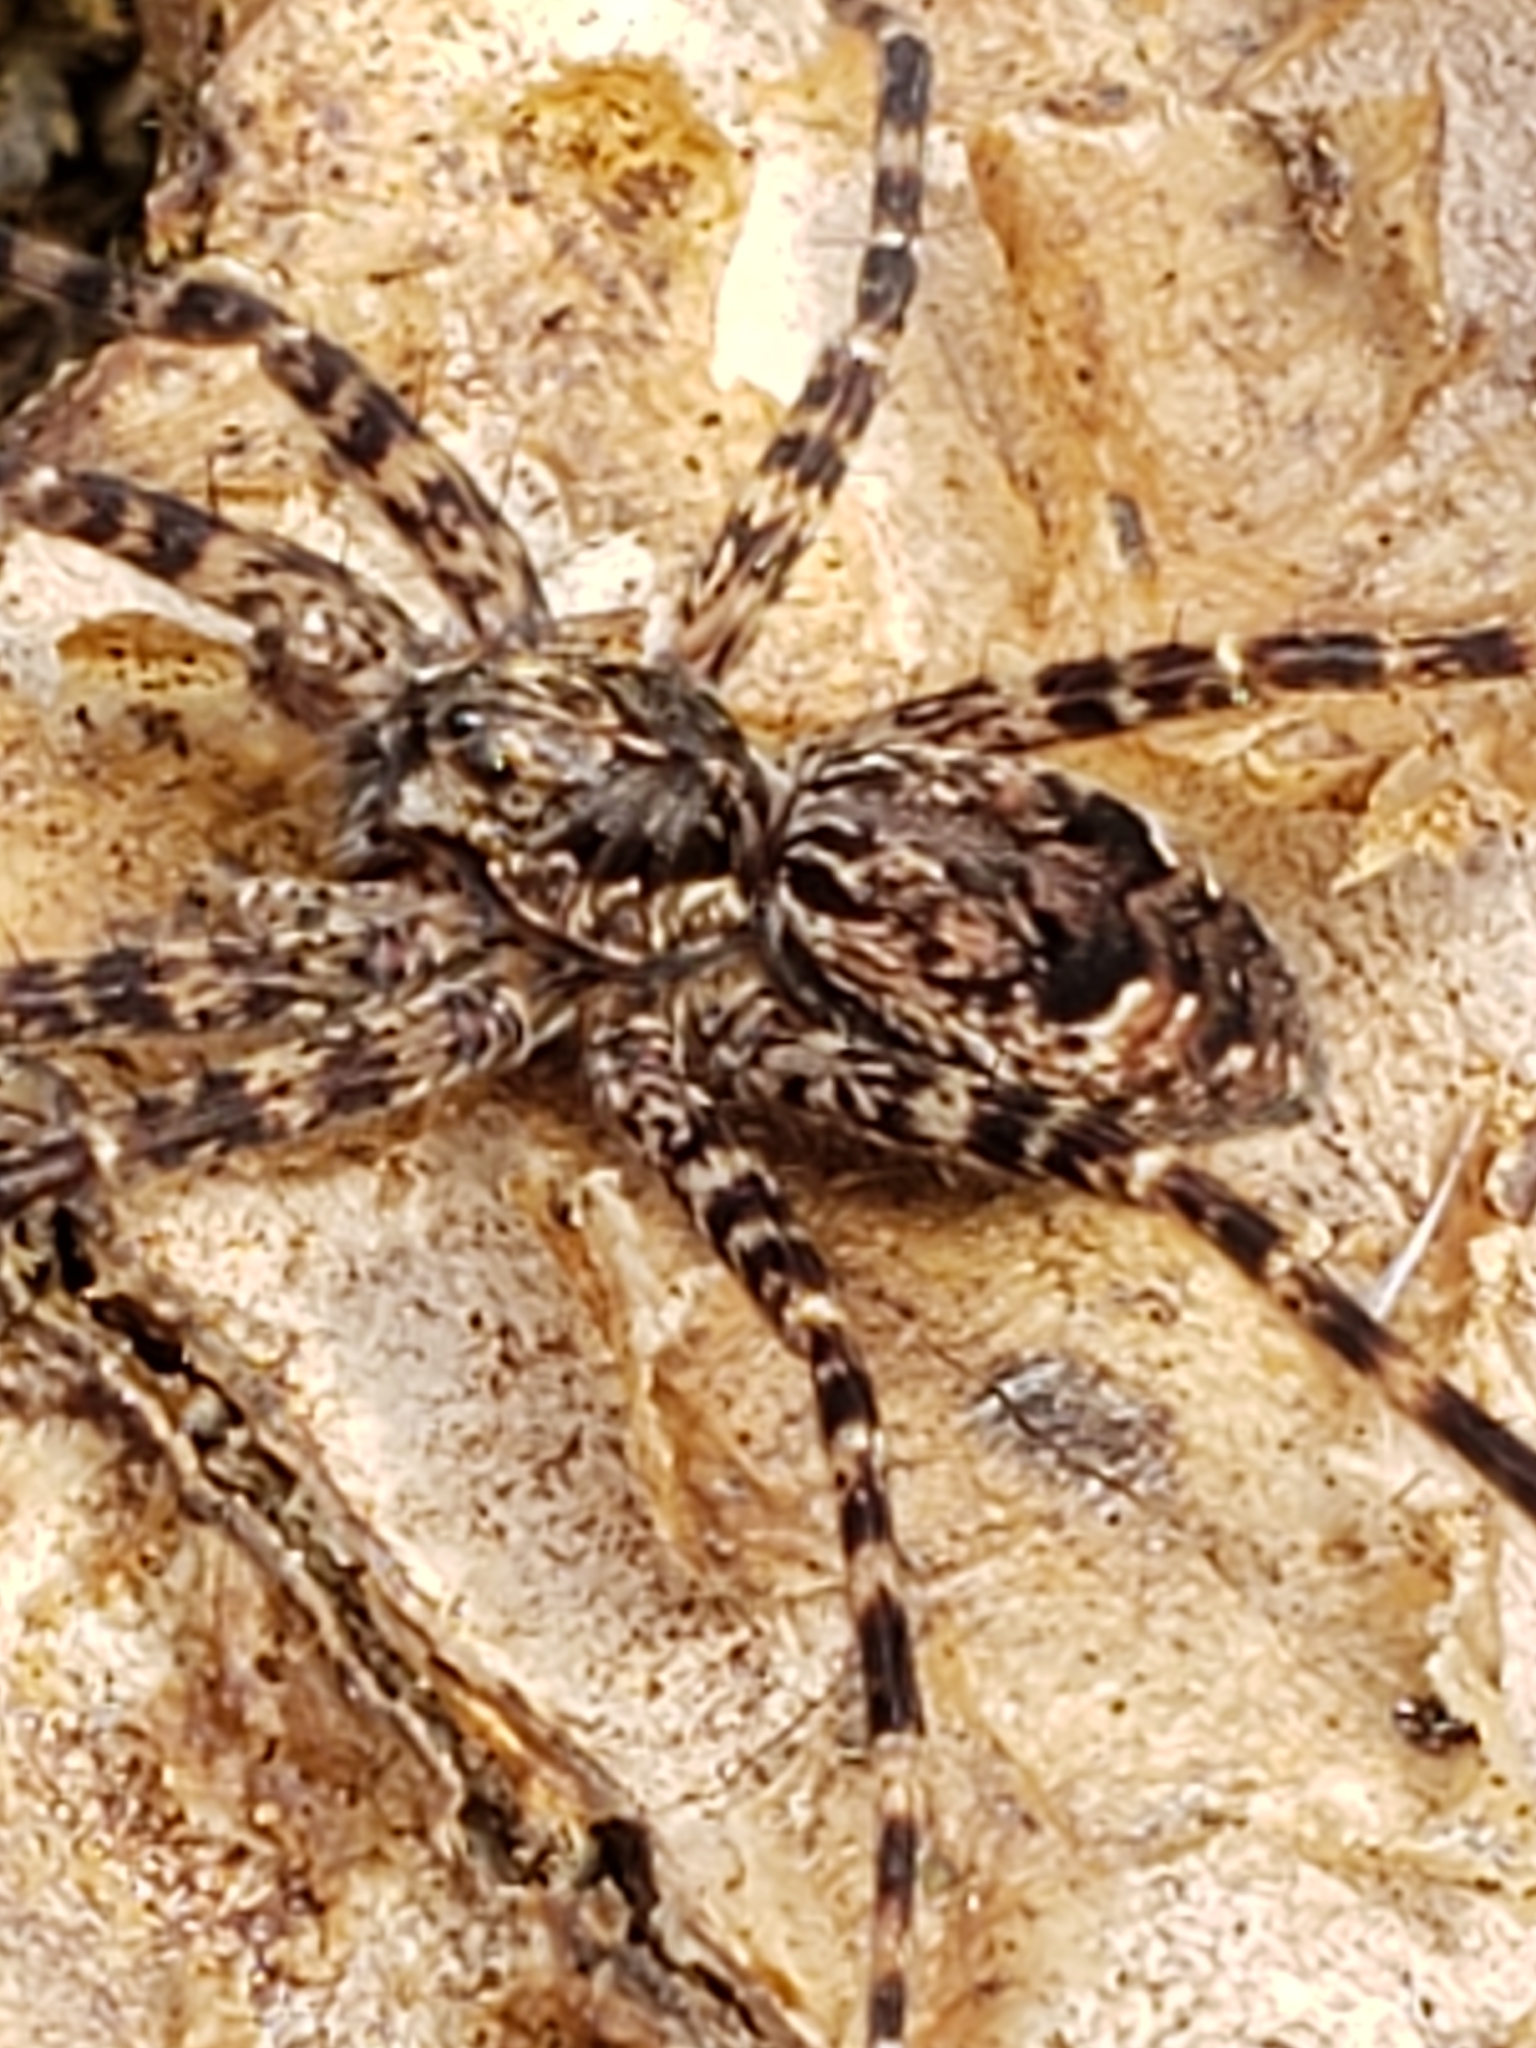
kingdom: Animalia
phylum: Arthropoda
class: Arachnida
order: Araneae
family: Pisauridae
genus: Dolomedes
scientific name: Dolomedes tenebrosus
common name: Dark fishing spider
